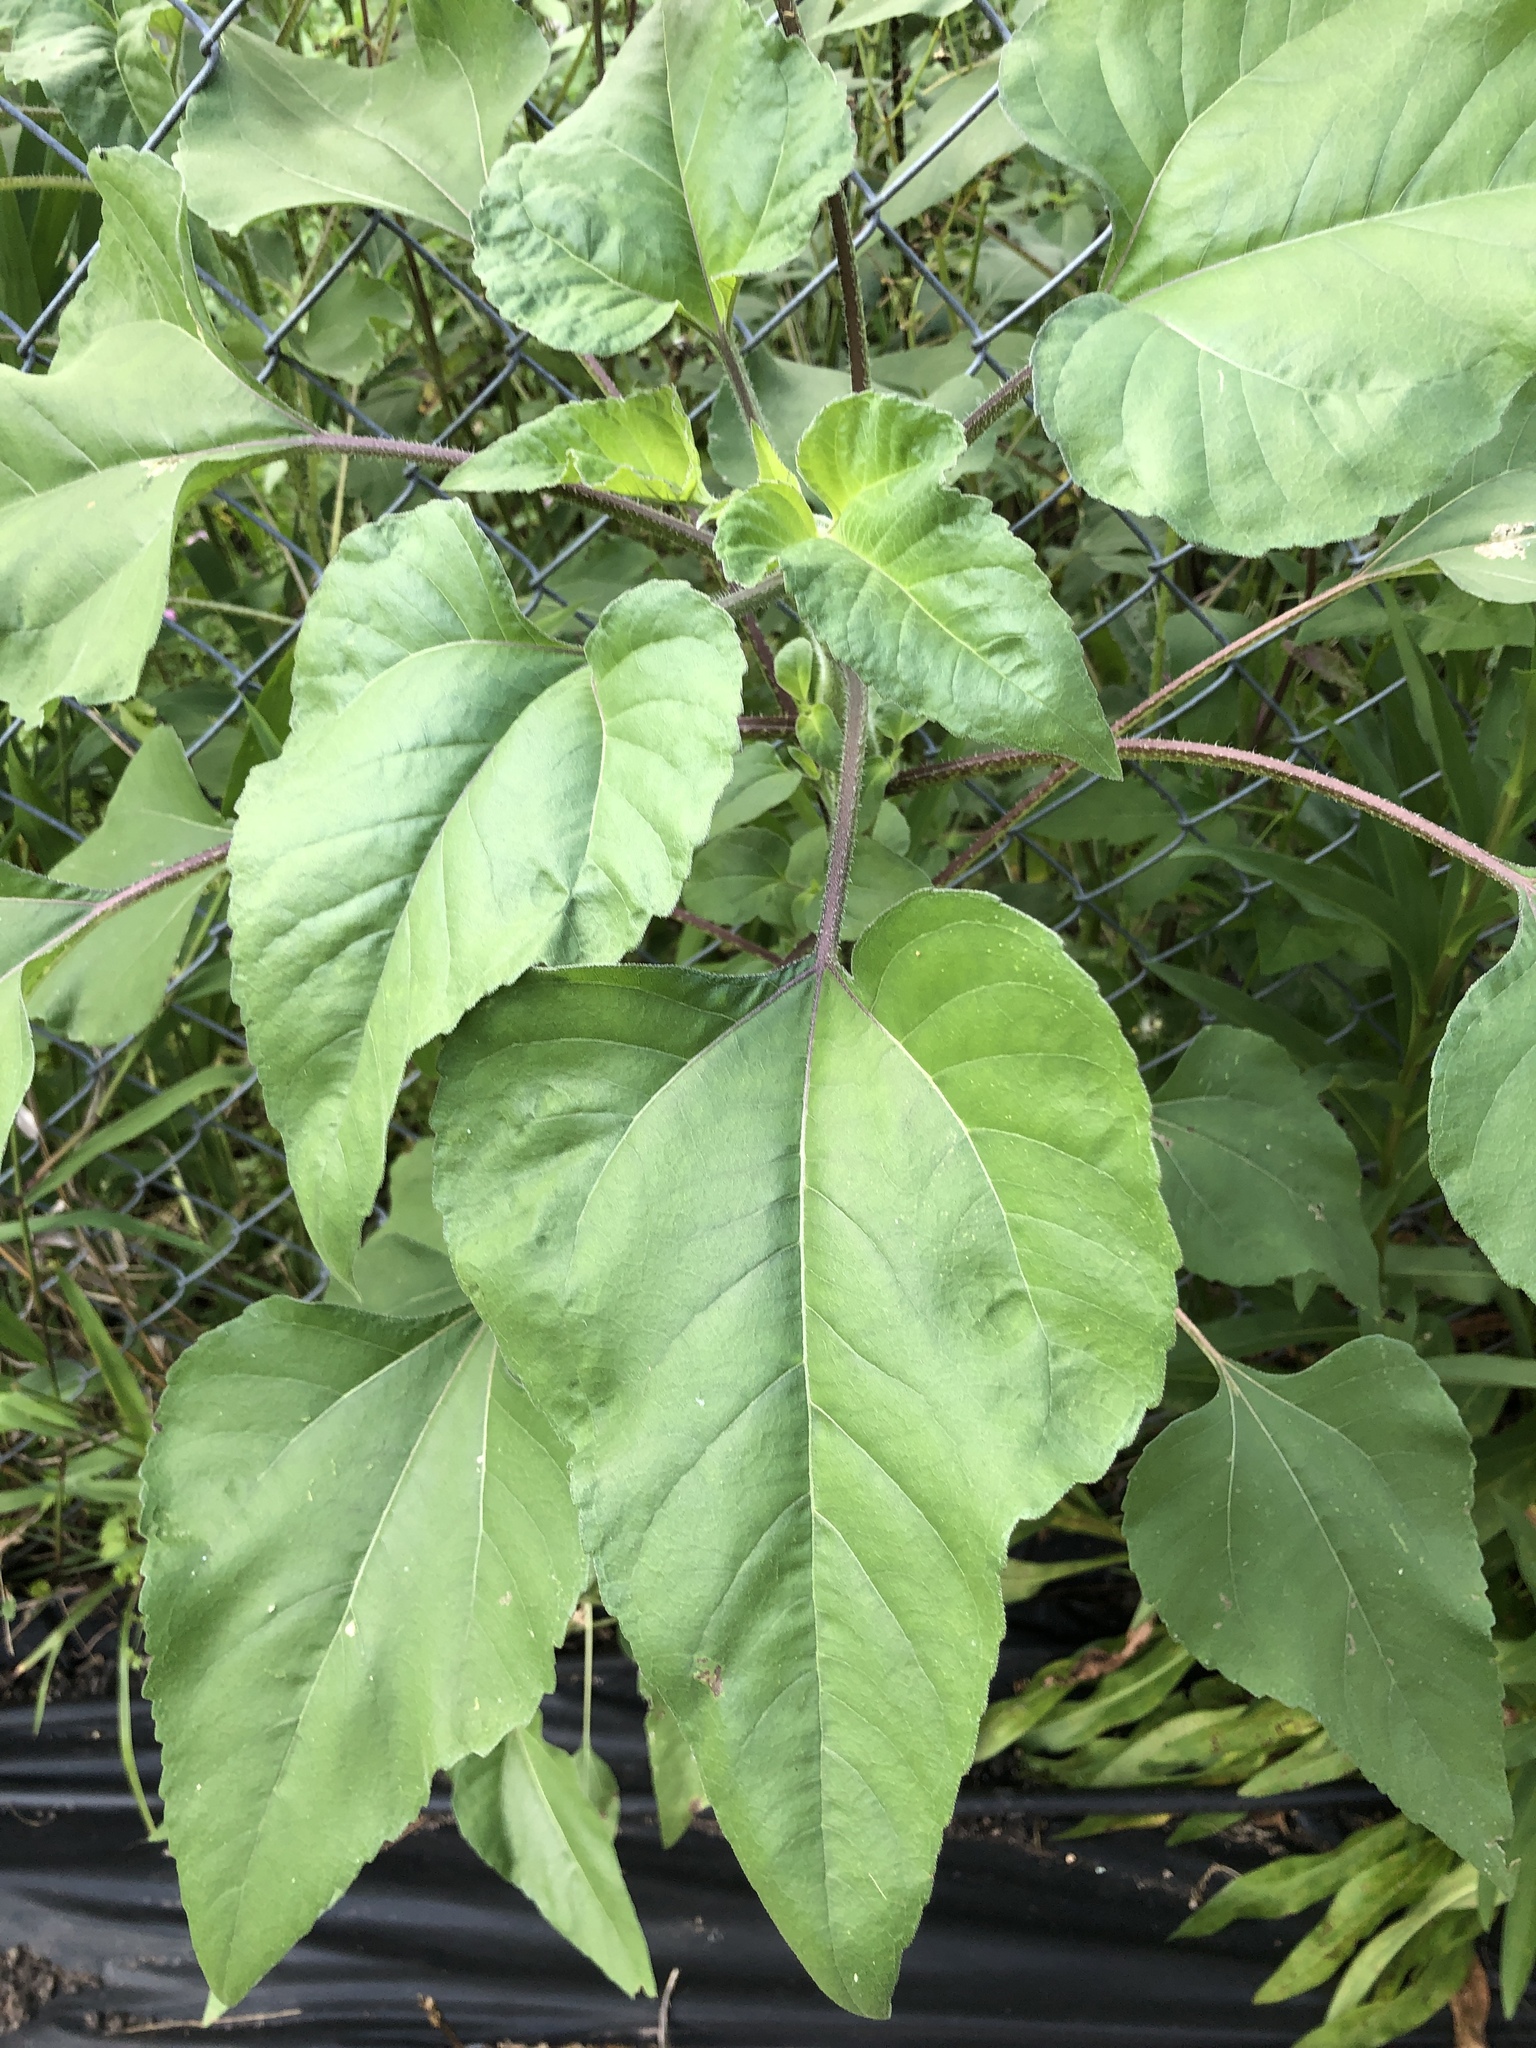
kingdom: Plantae
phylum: Tracheophyta
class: Magnoliopsida
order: Asterales
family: Asteraceae
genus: Helianthus
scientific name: Helianthus annuus
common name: Sunflower
